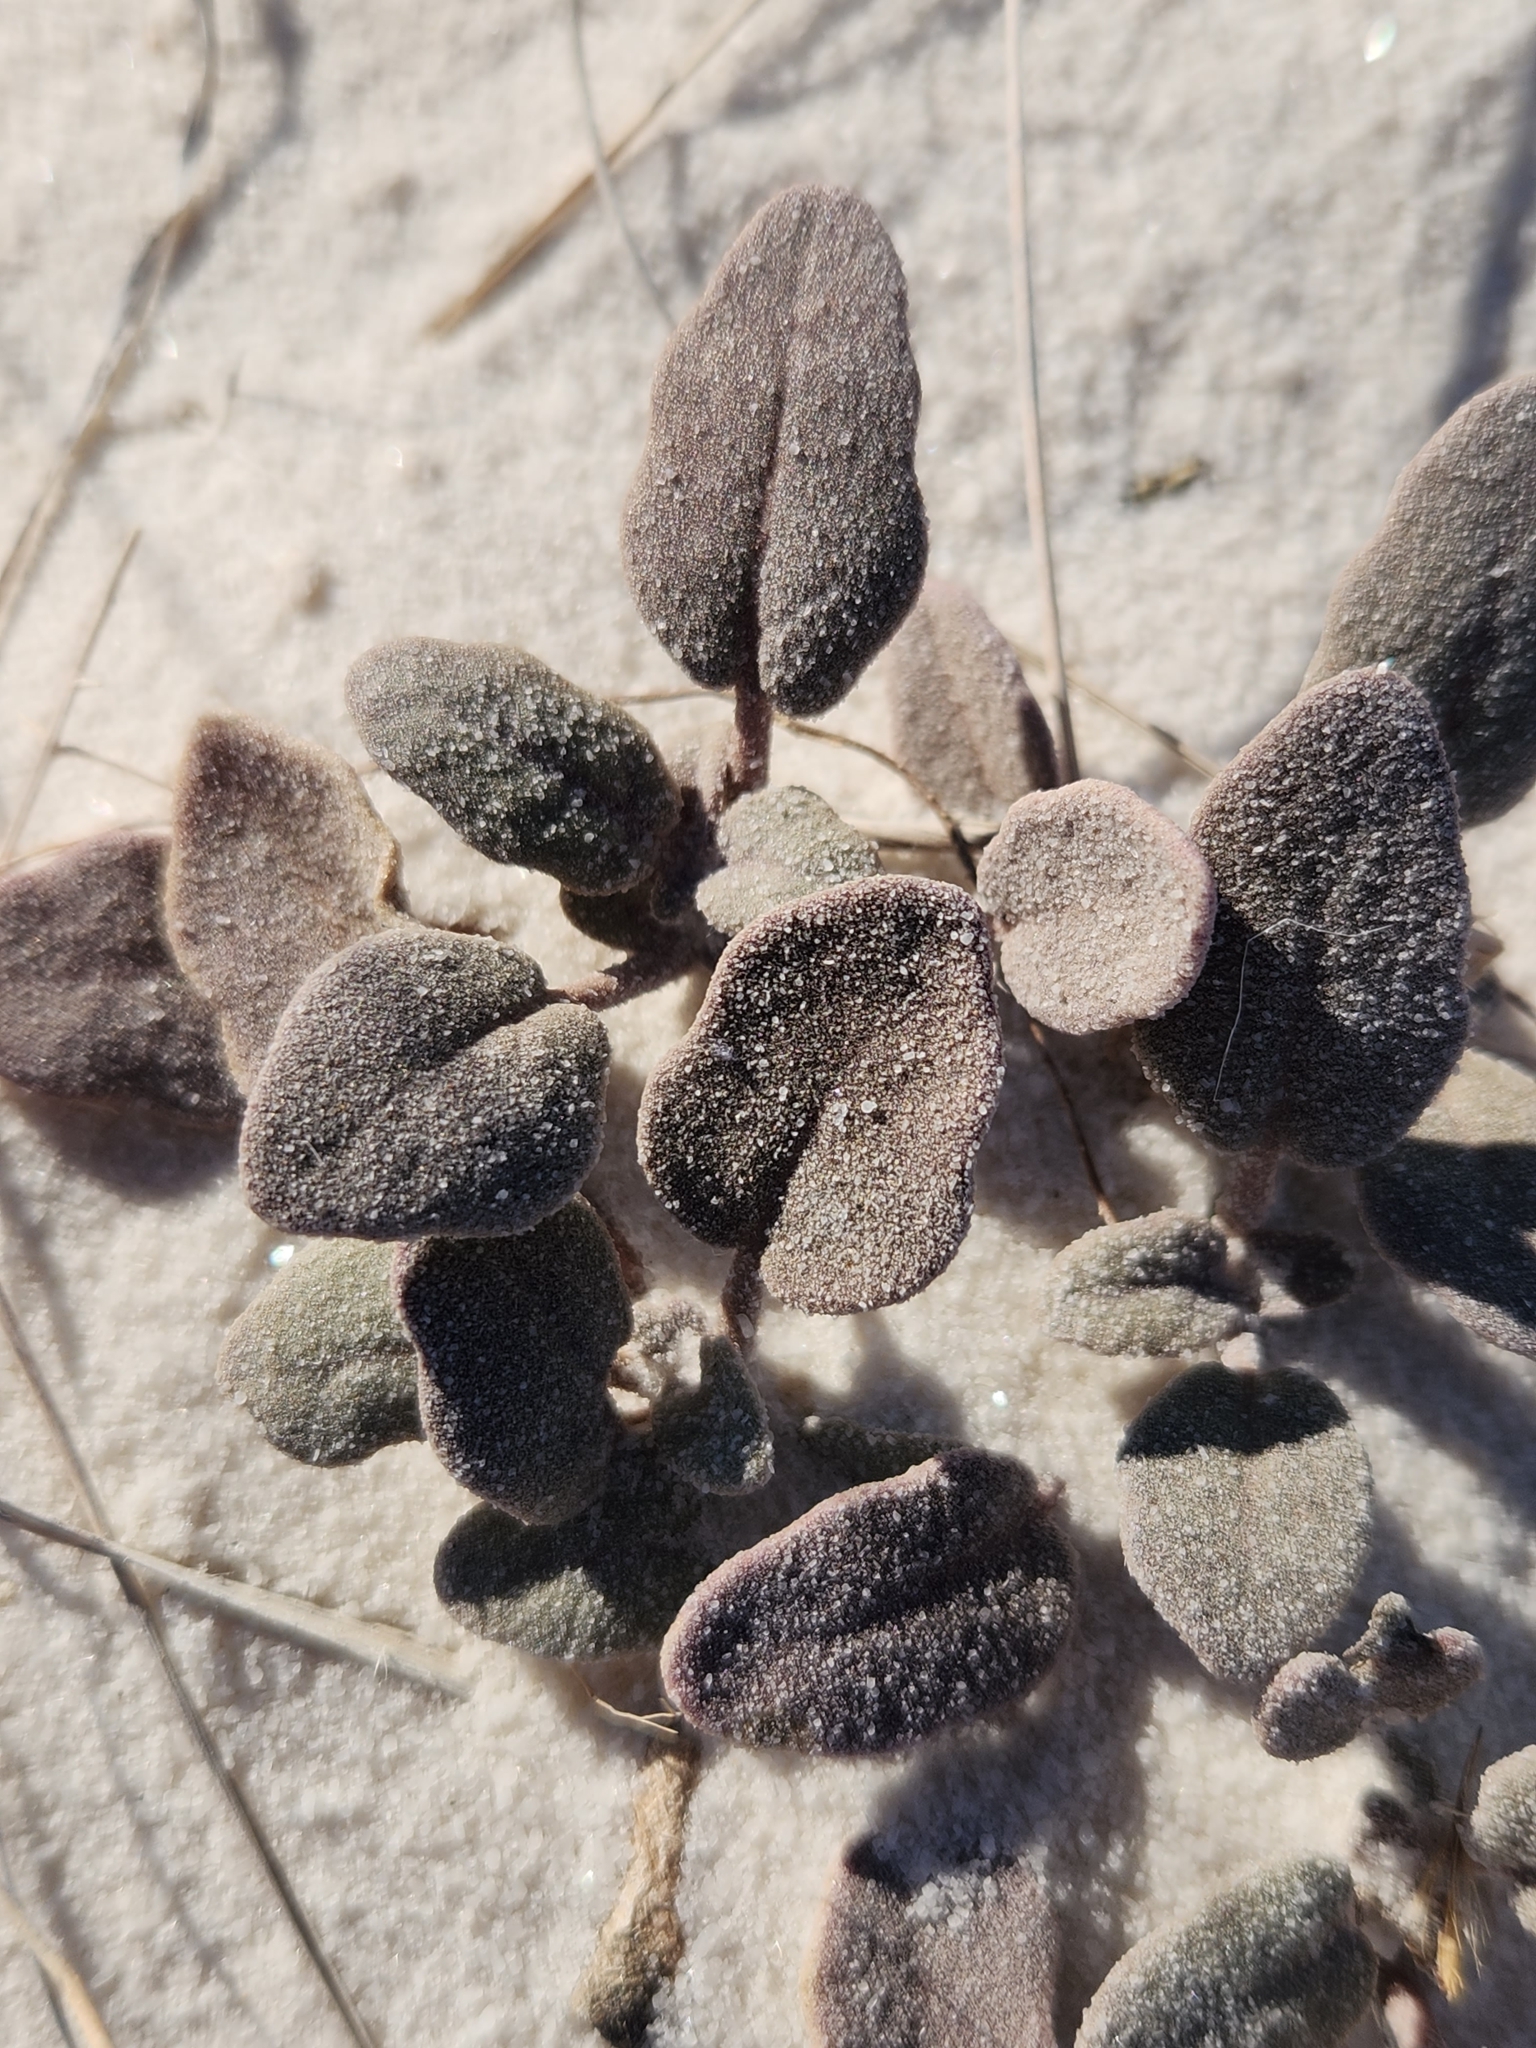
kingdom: Plantae
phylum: Tracheophyta
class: Magnoliopsida
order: Caryophyllales
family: Nyctaginaceae
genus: Abronia
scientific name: Abronia angustifolia
